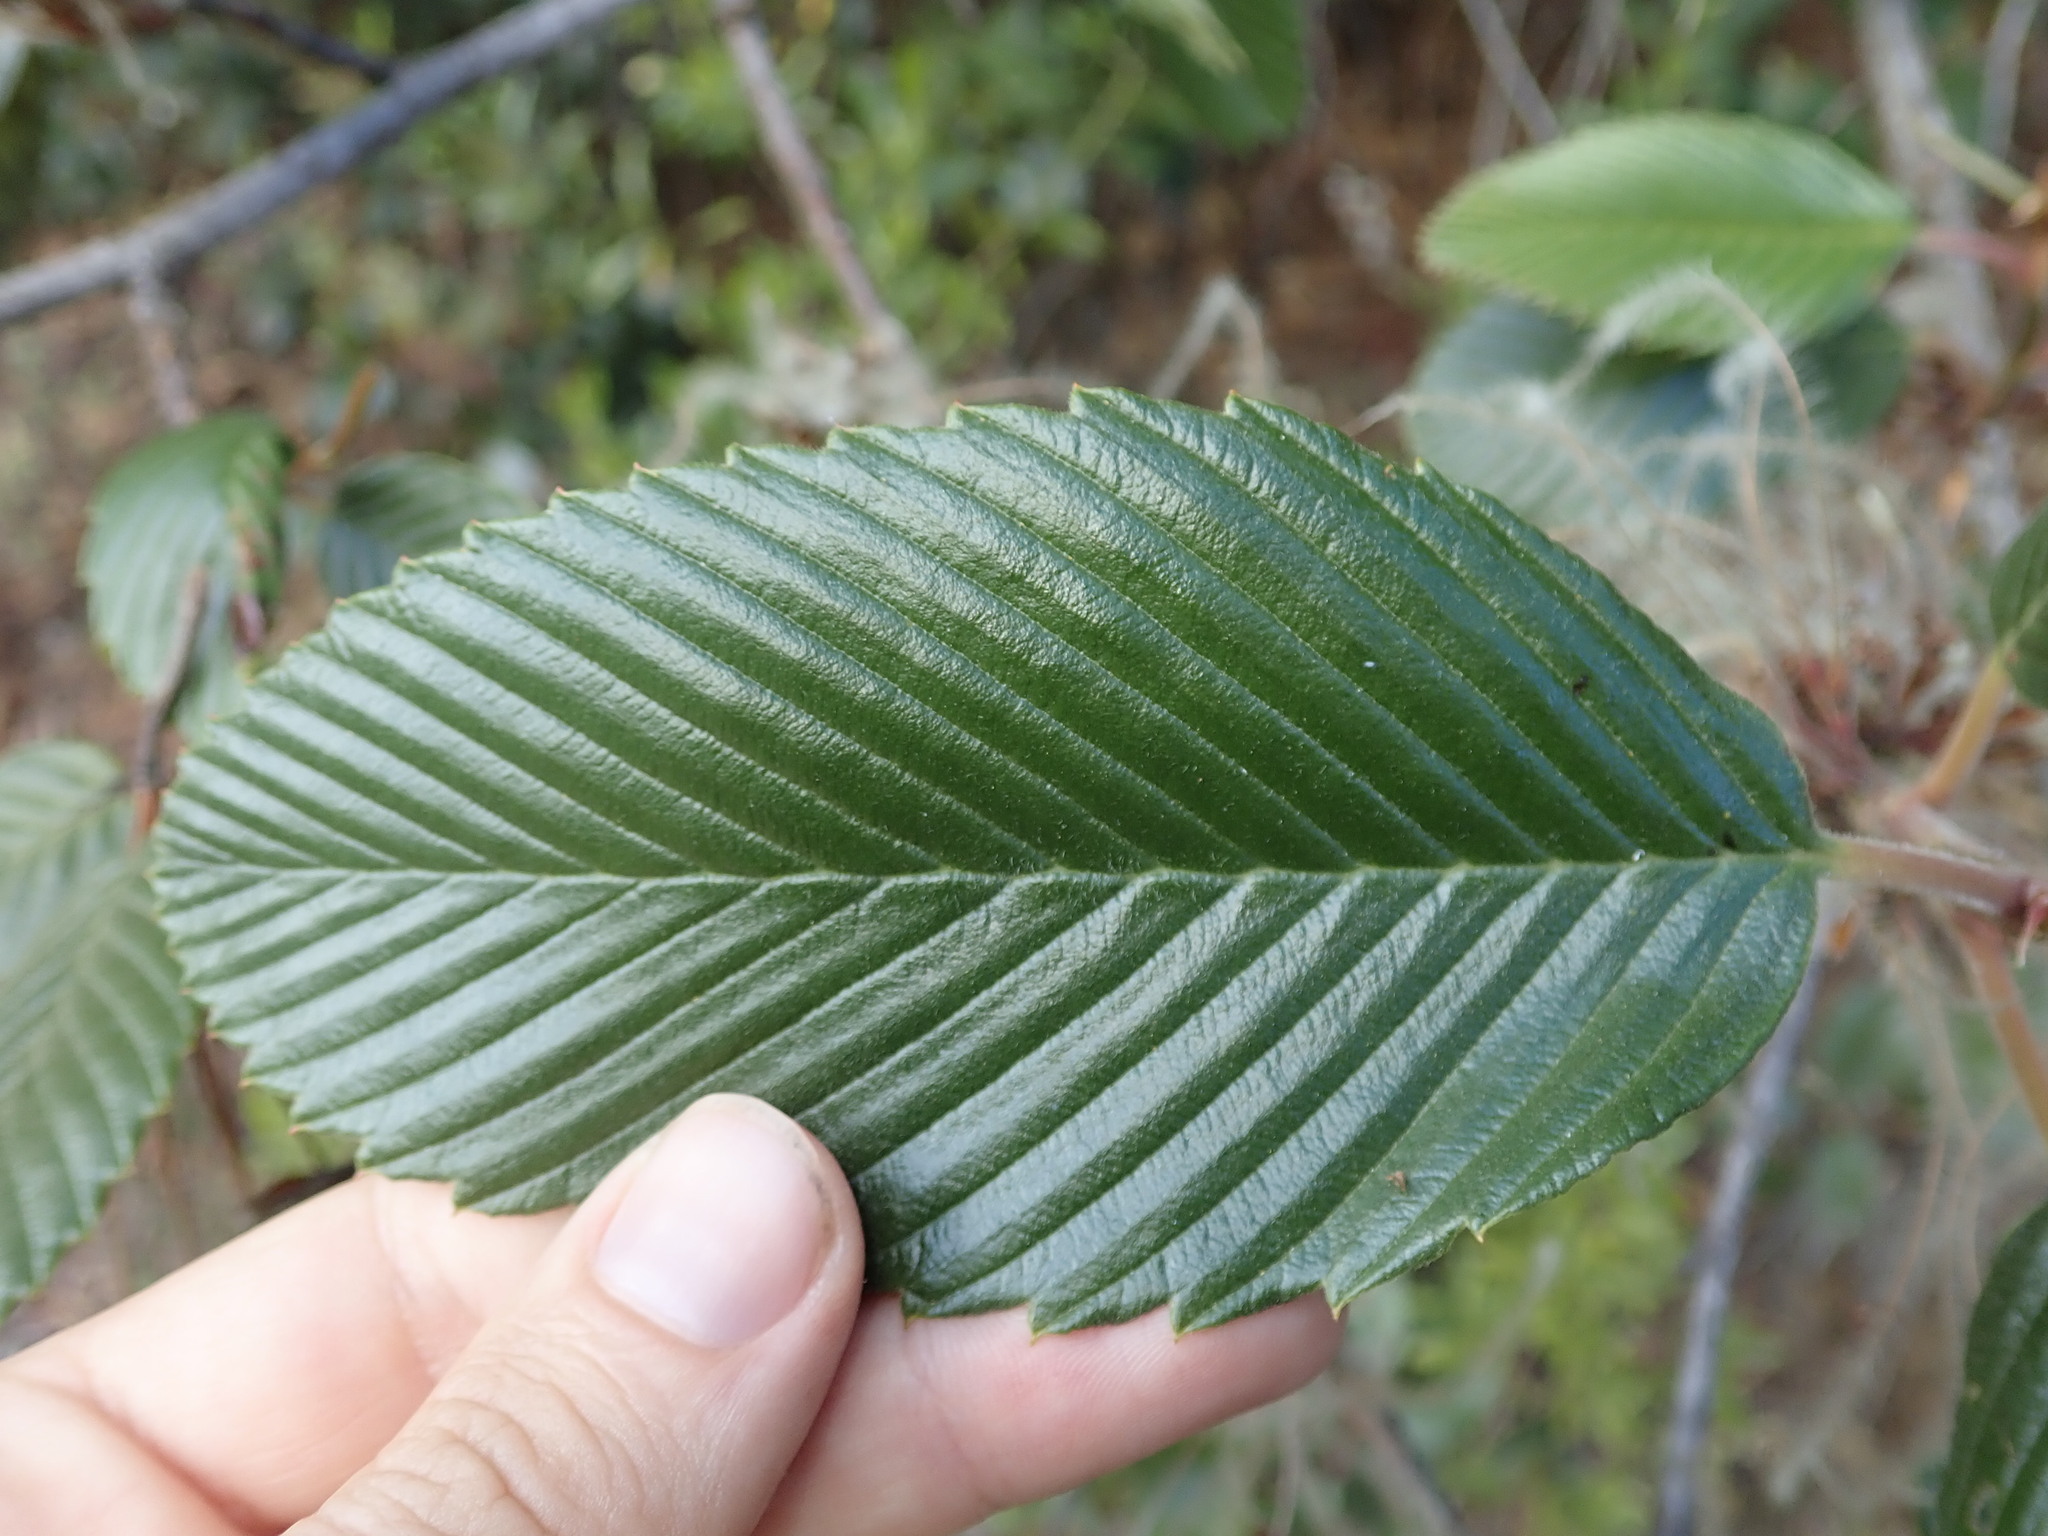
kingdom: Plantae
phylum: Tracheophyta
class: Magnoliopsida
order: Rosales
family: Rosaceae
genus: Cercocarpus
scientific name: Cercocarpus macrophyllus
